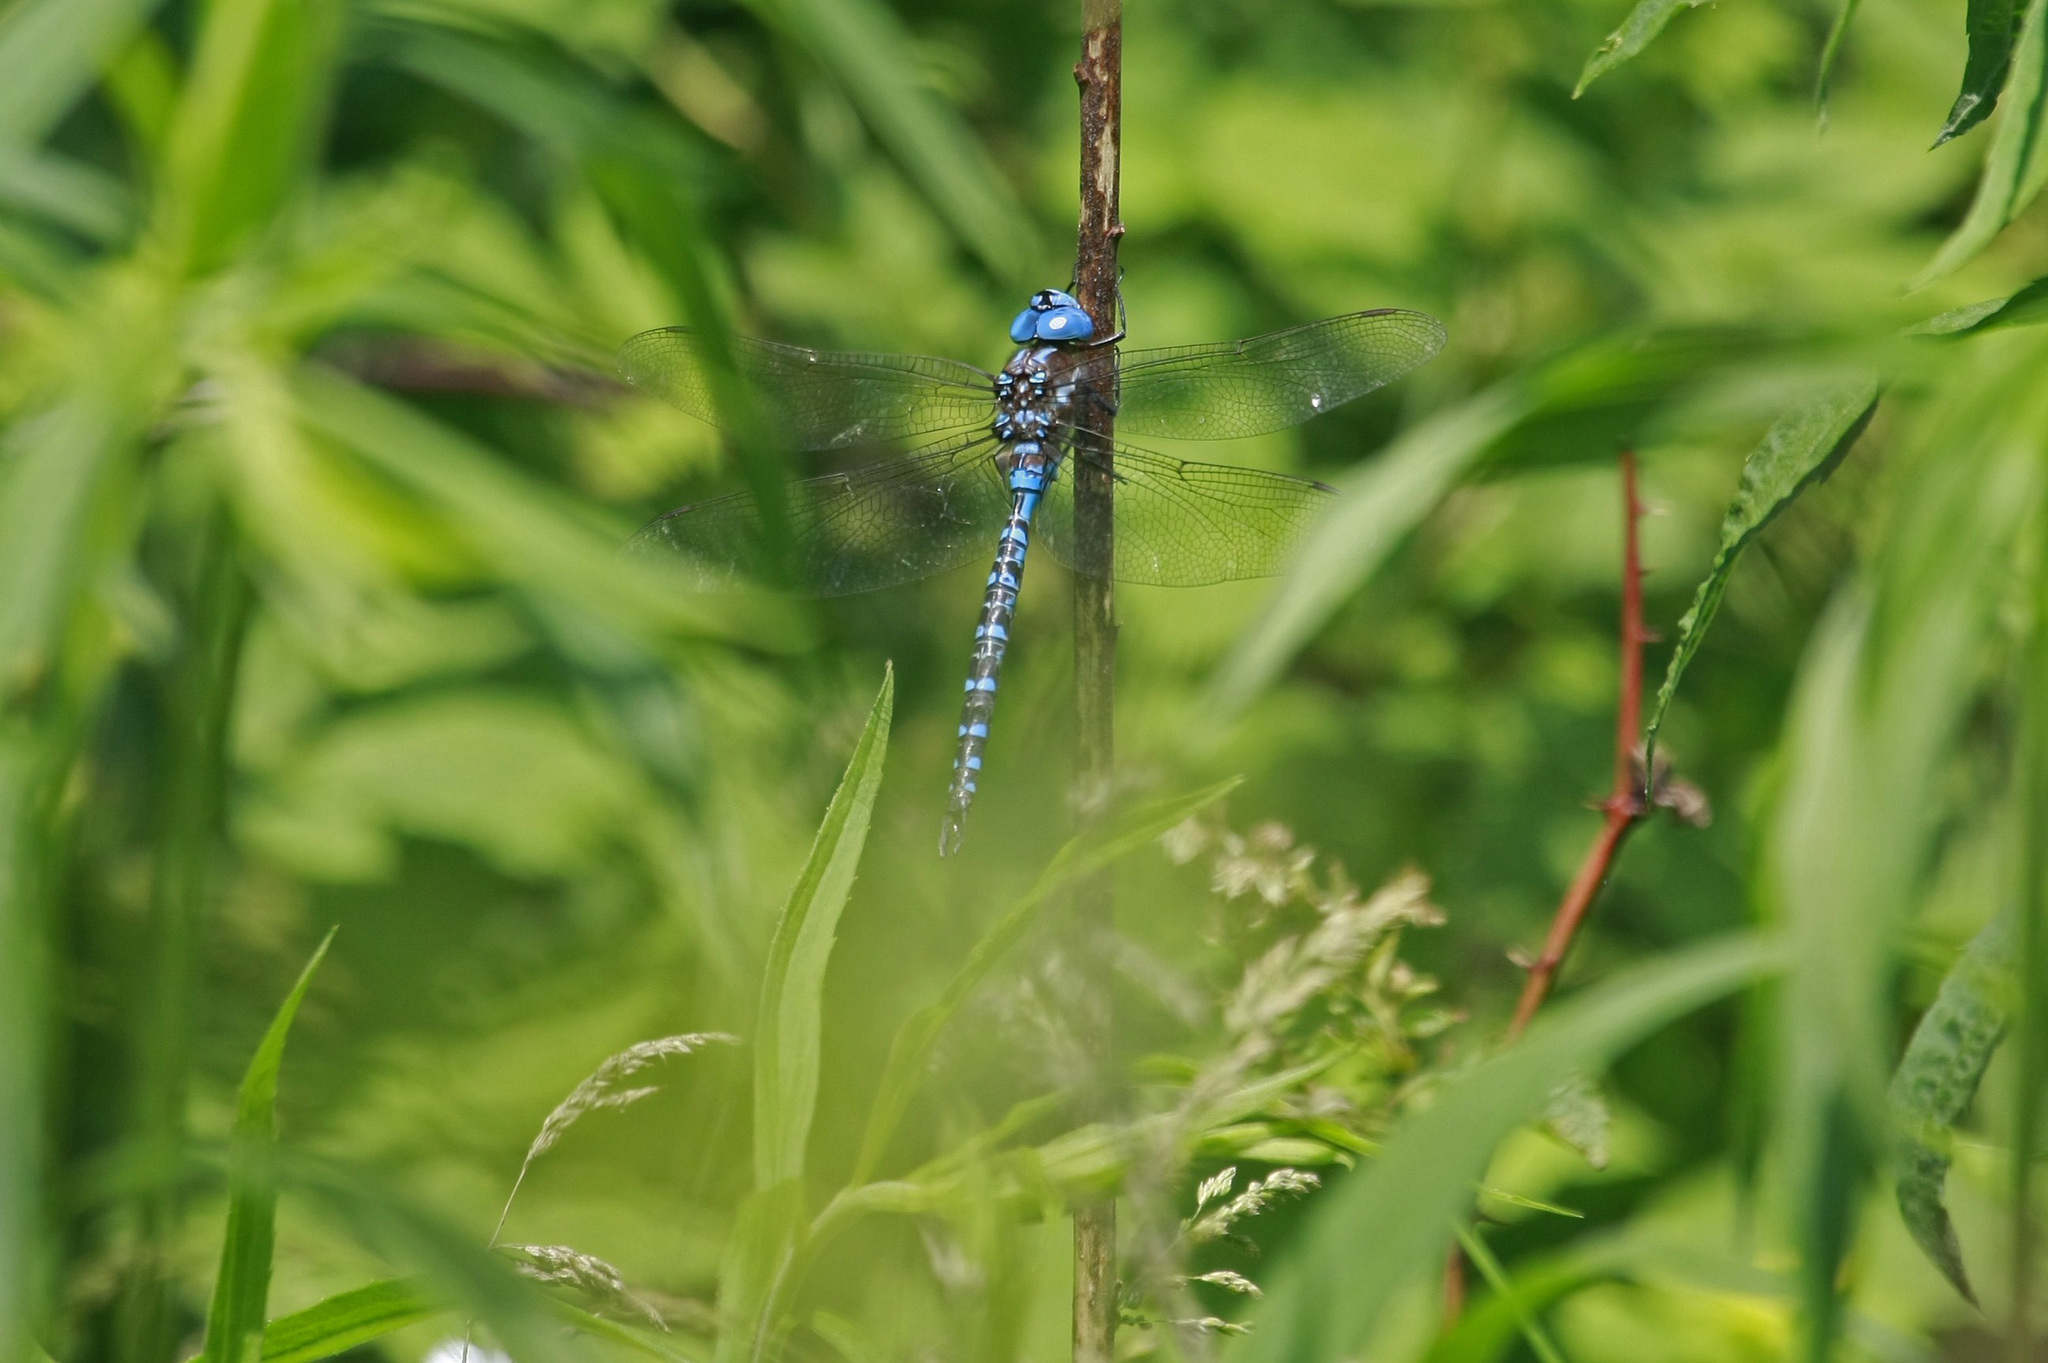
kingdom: Animalia
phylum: Arthropoda
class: Insecta
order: Odonata
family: Aeshnidae
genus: Rhionaeschna
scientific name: Rhionaeschna mutata
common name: Spatterdock darner
